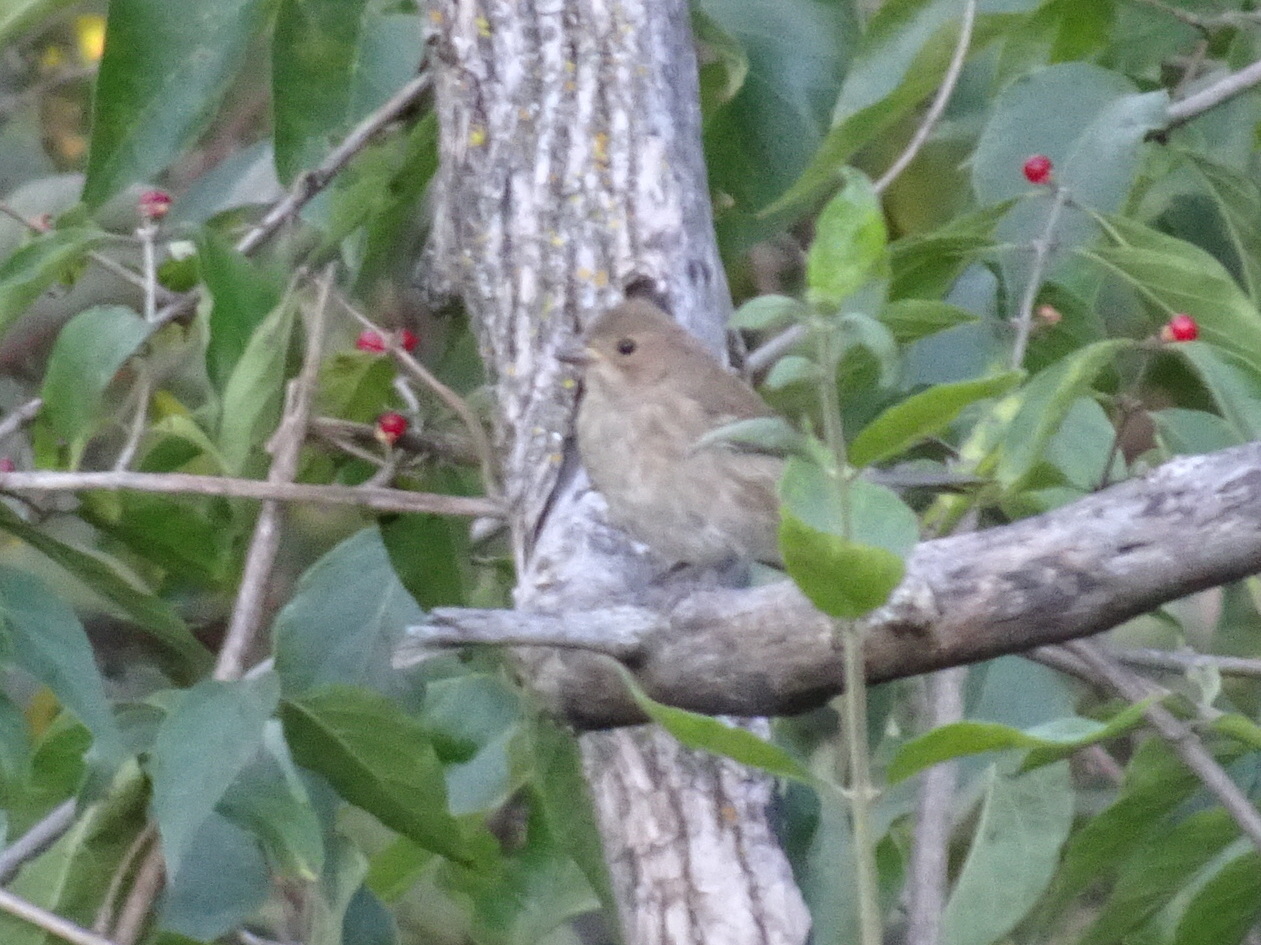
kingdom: Animalia
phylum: Chordata
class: Aves
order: Passeriformes
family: Cardinalidae
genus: Passerina
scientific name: Passerina cyanea
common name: Indigo bunting
